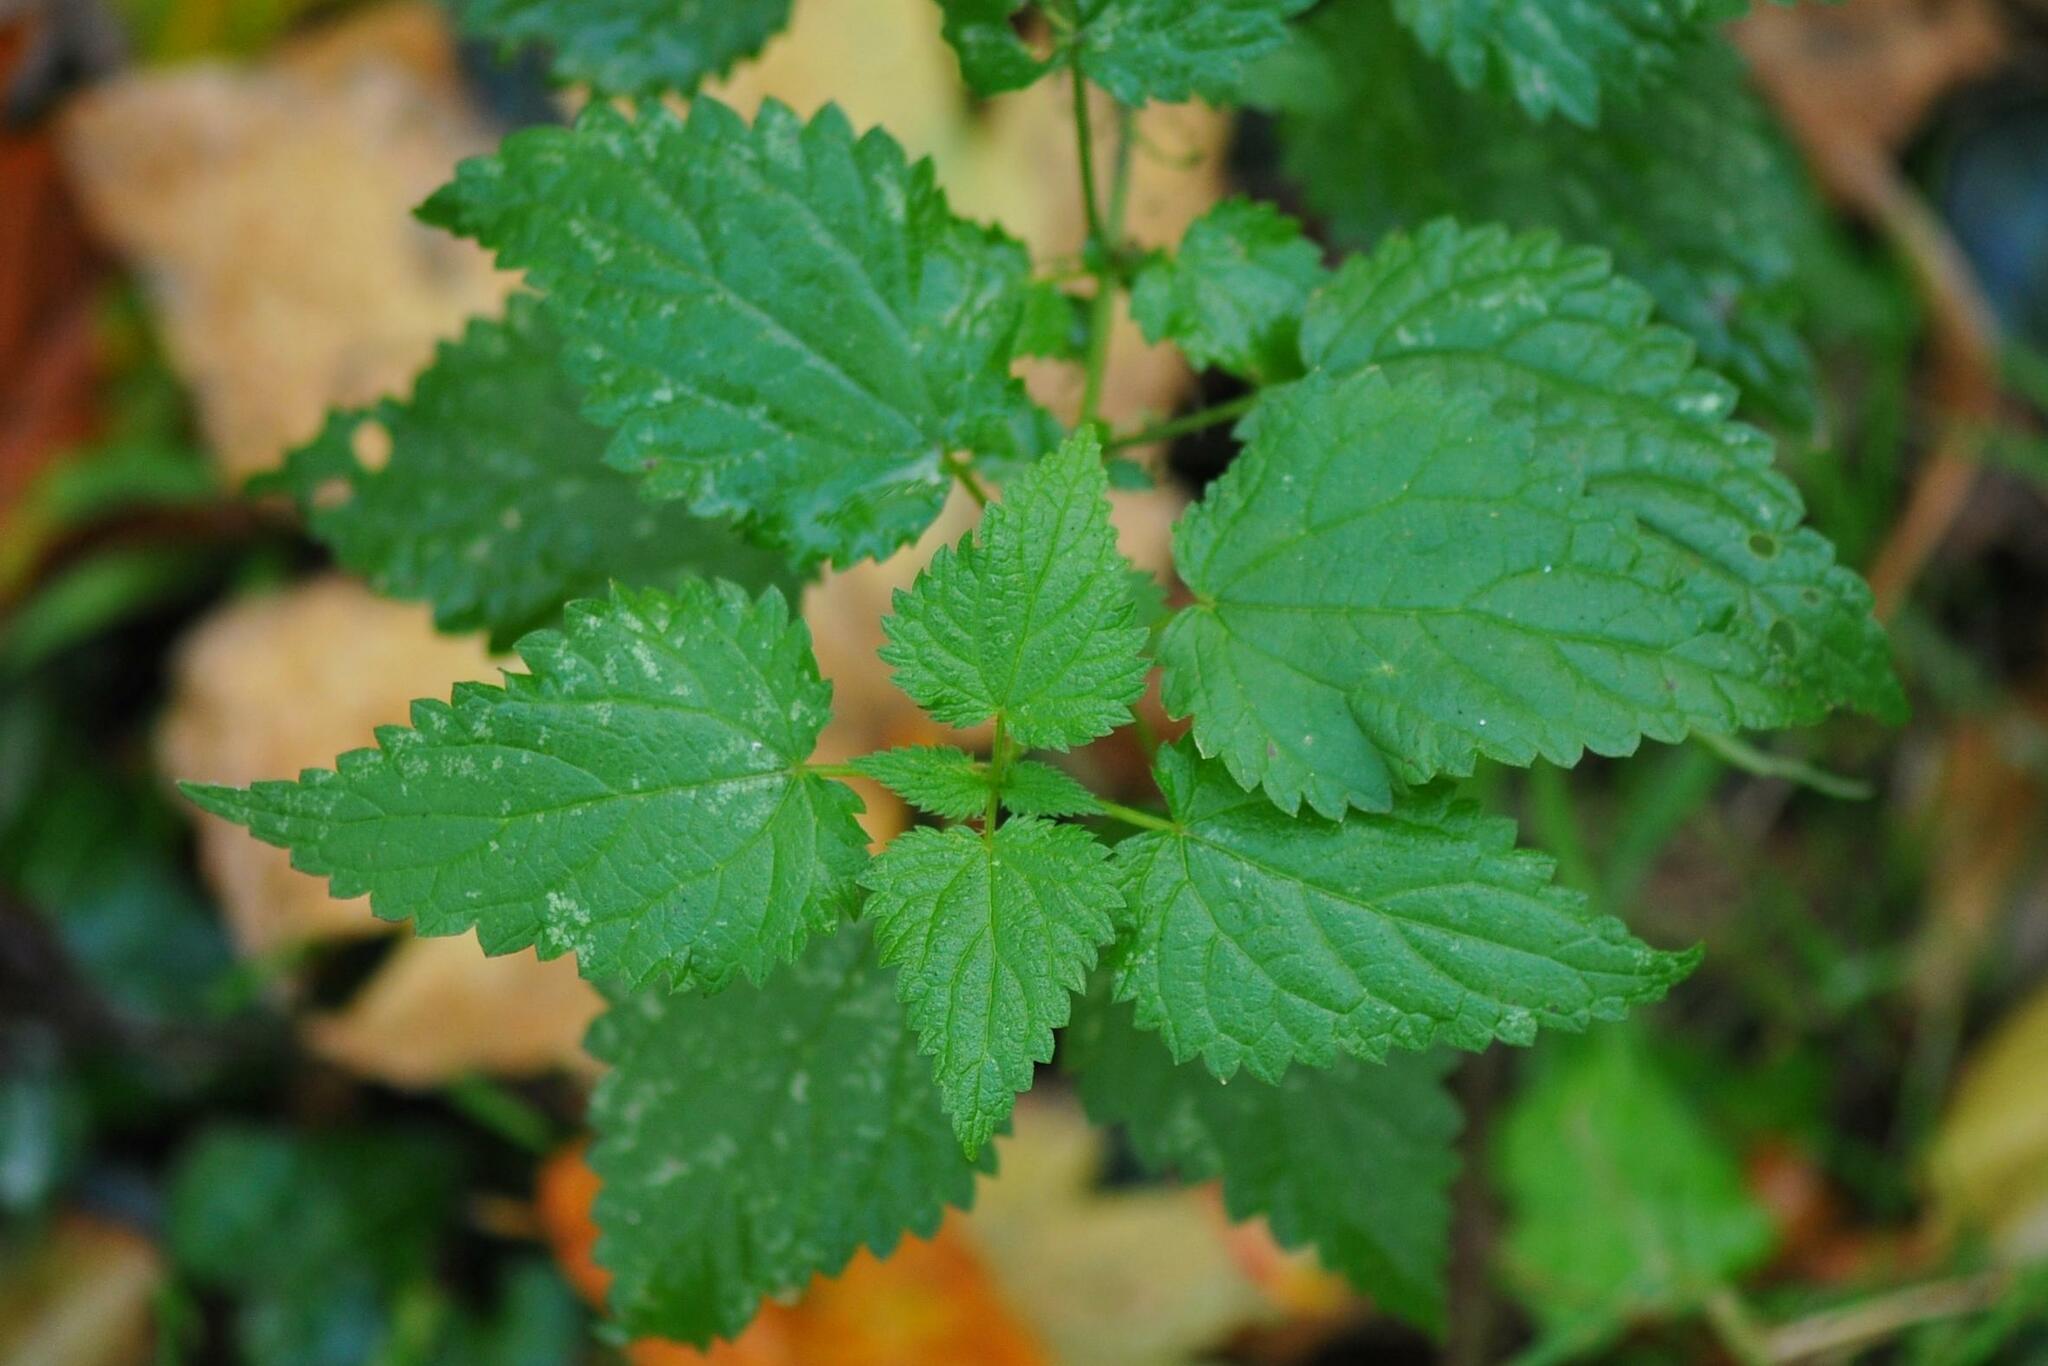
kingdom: Plantae
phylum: Tracheophyta
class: Magnoliopsida
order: Rosales
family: Urticaceae
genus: Urtica
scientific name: Urtica dioica
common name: Common nettle
